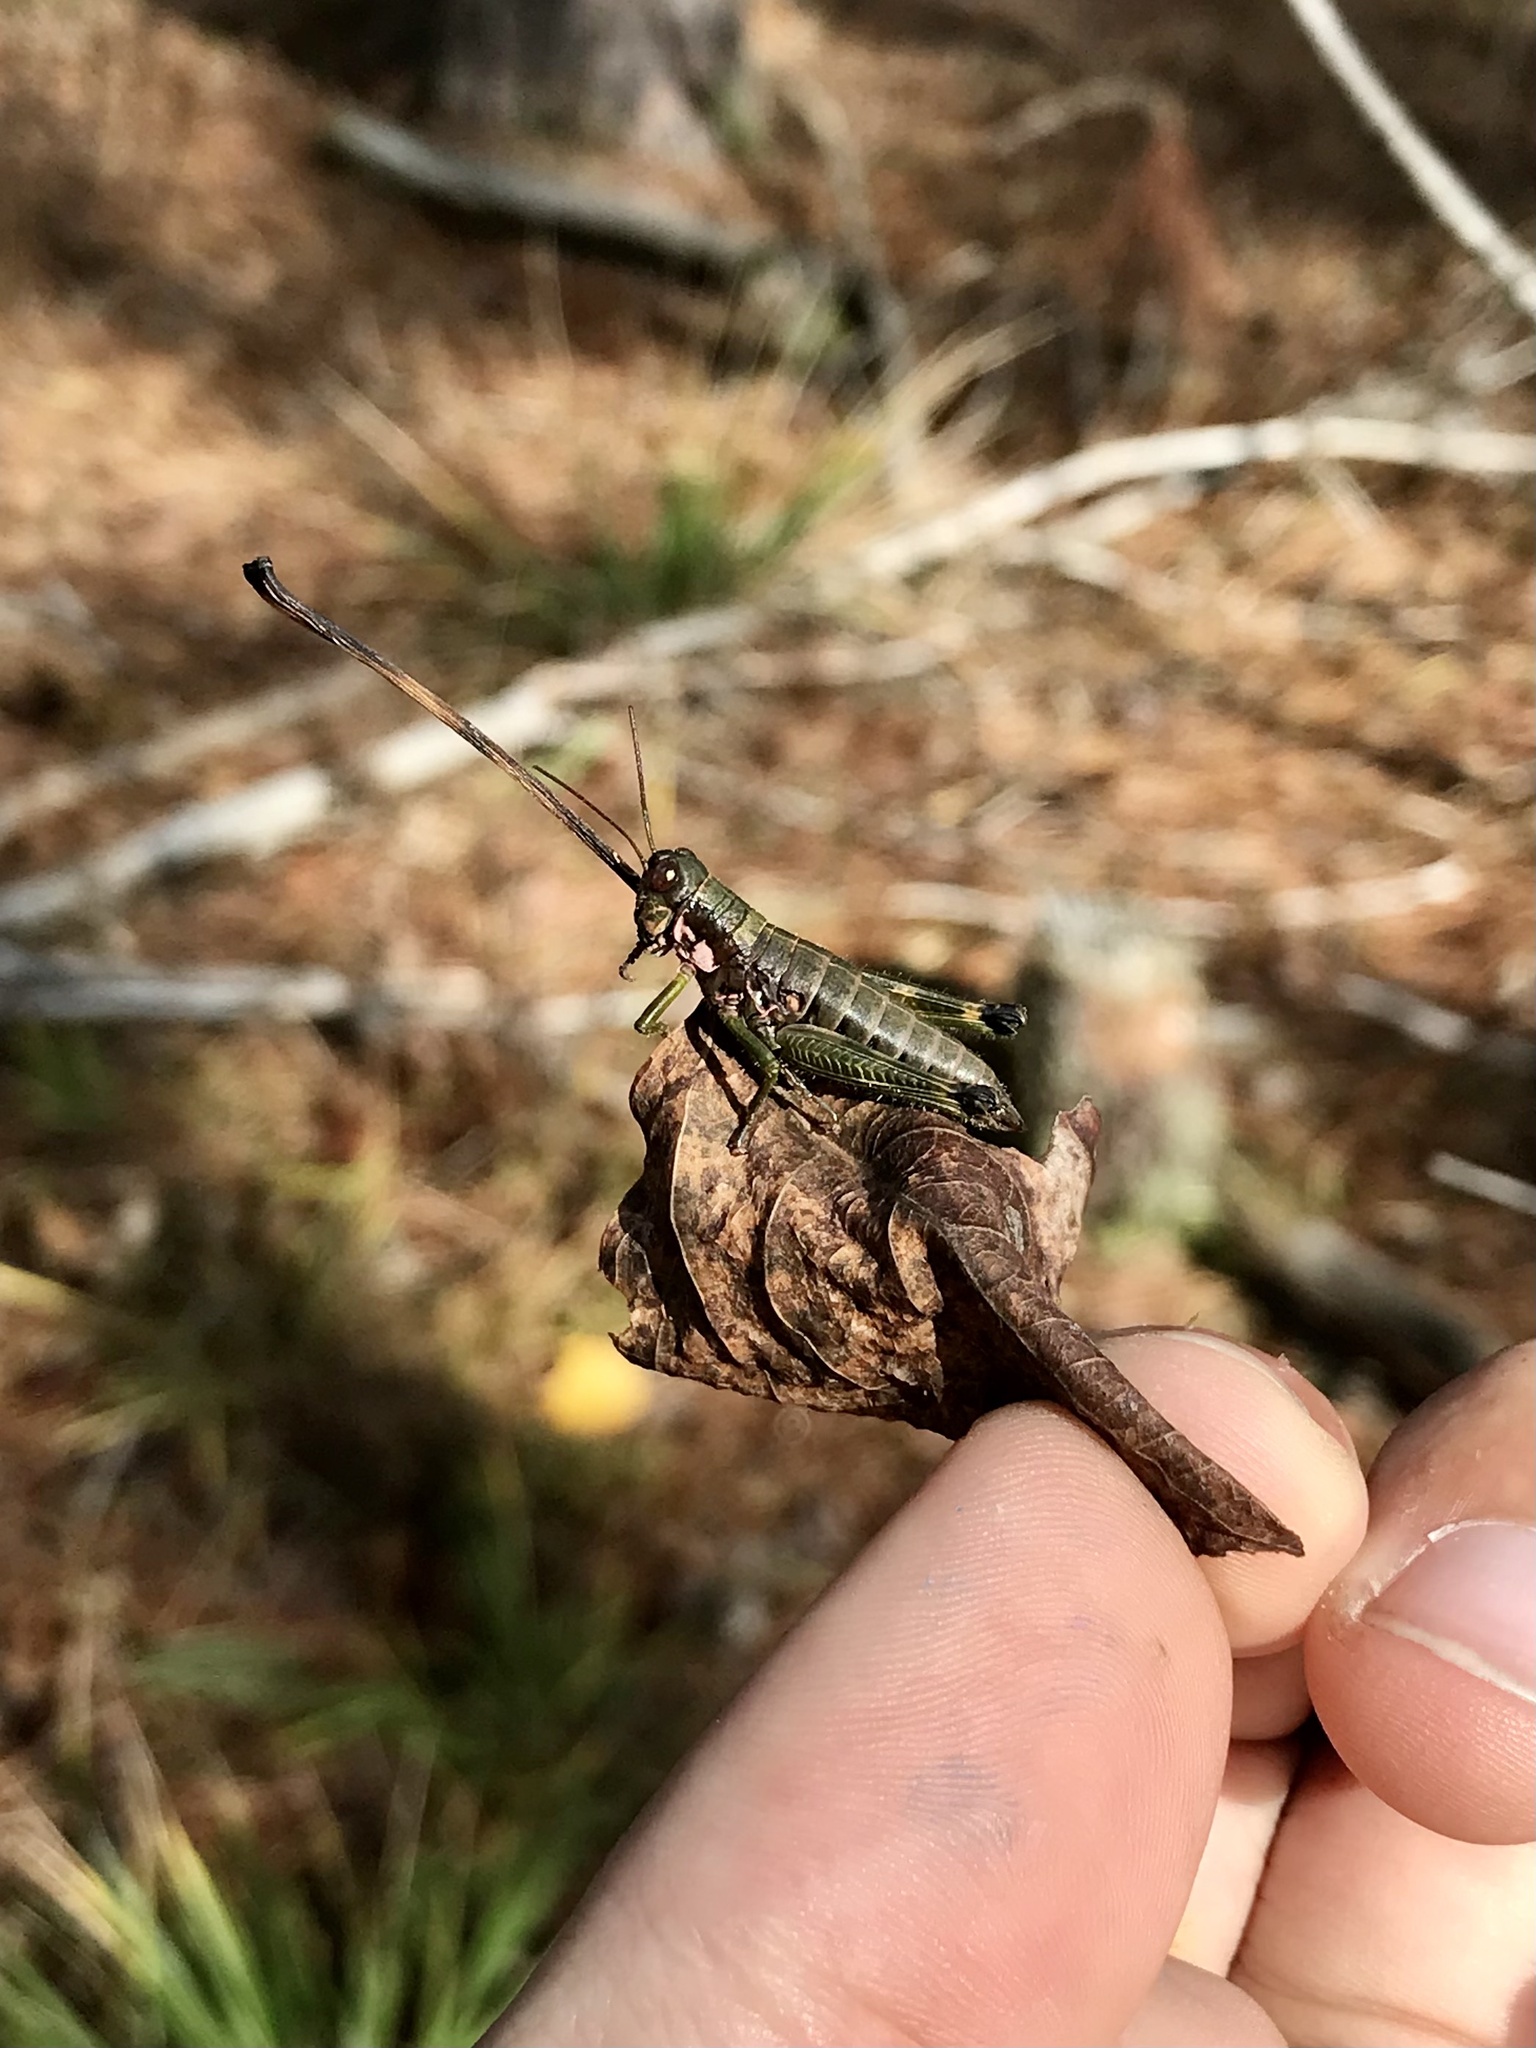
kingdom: Animalia
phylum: Arthropoda
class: Insecta
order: Orthoptera
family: Acrididae
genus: Booneacris
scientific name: Booneacris glacialis
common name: Wingless mountain grasshopper
